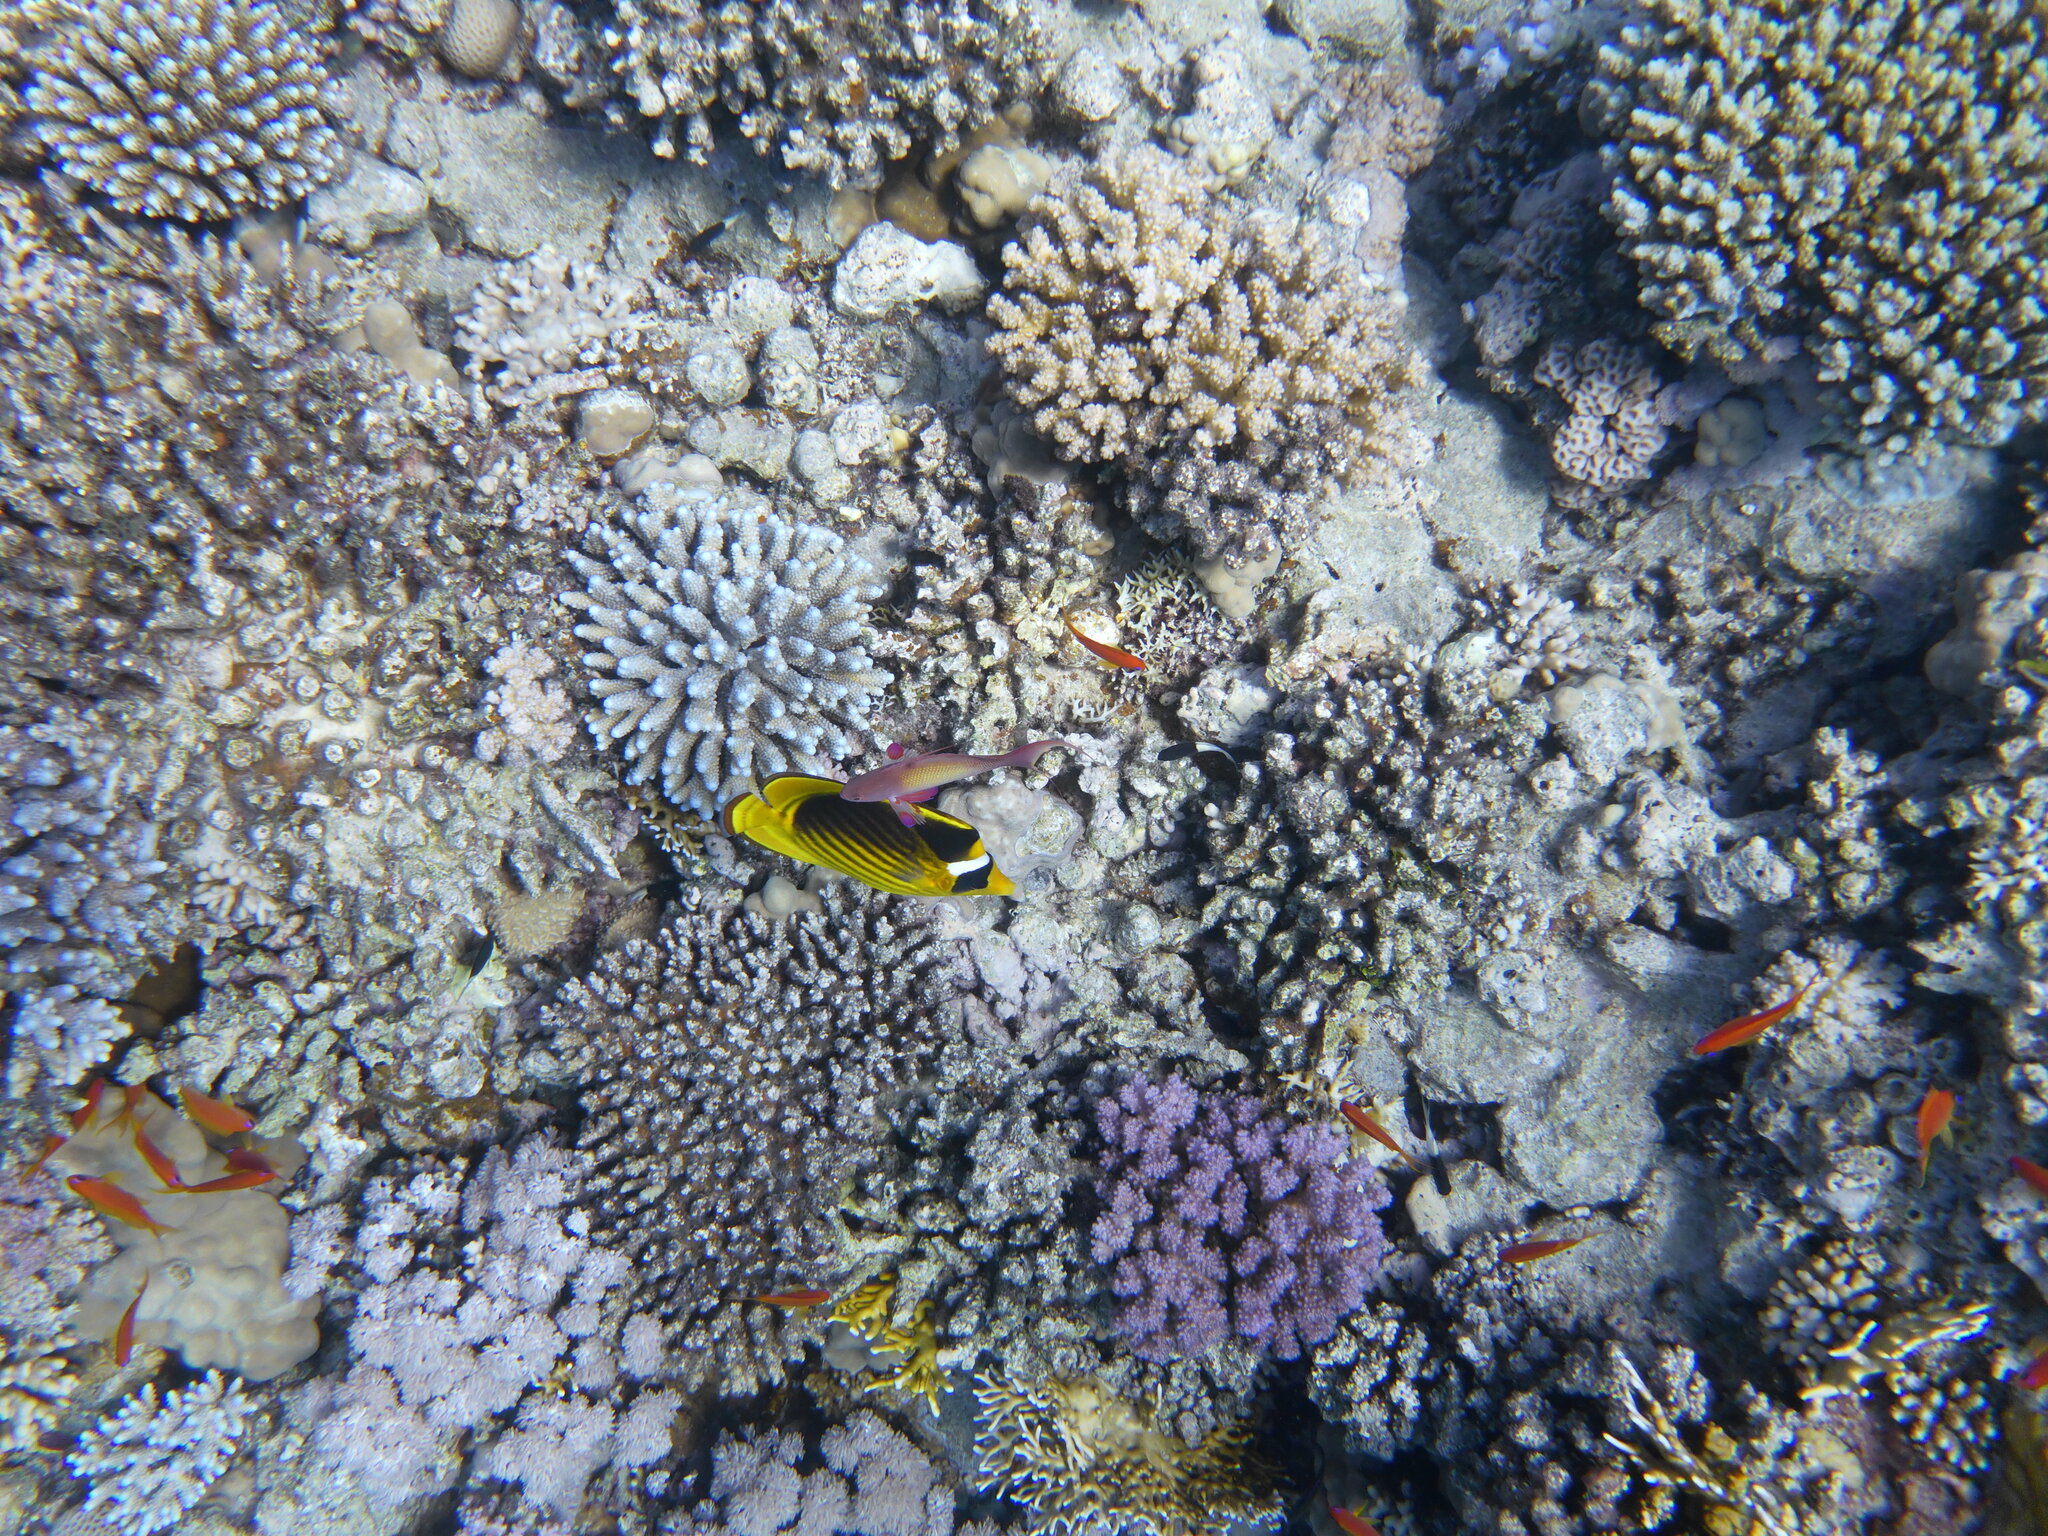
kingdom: Animalia
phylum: Chordata
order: Perciformes
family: Serranidae
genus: Pseudanthias
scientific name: Pseudanthias squamipinnis
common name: Scalefin anthias
